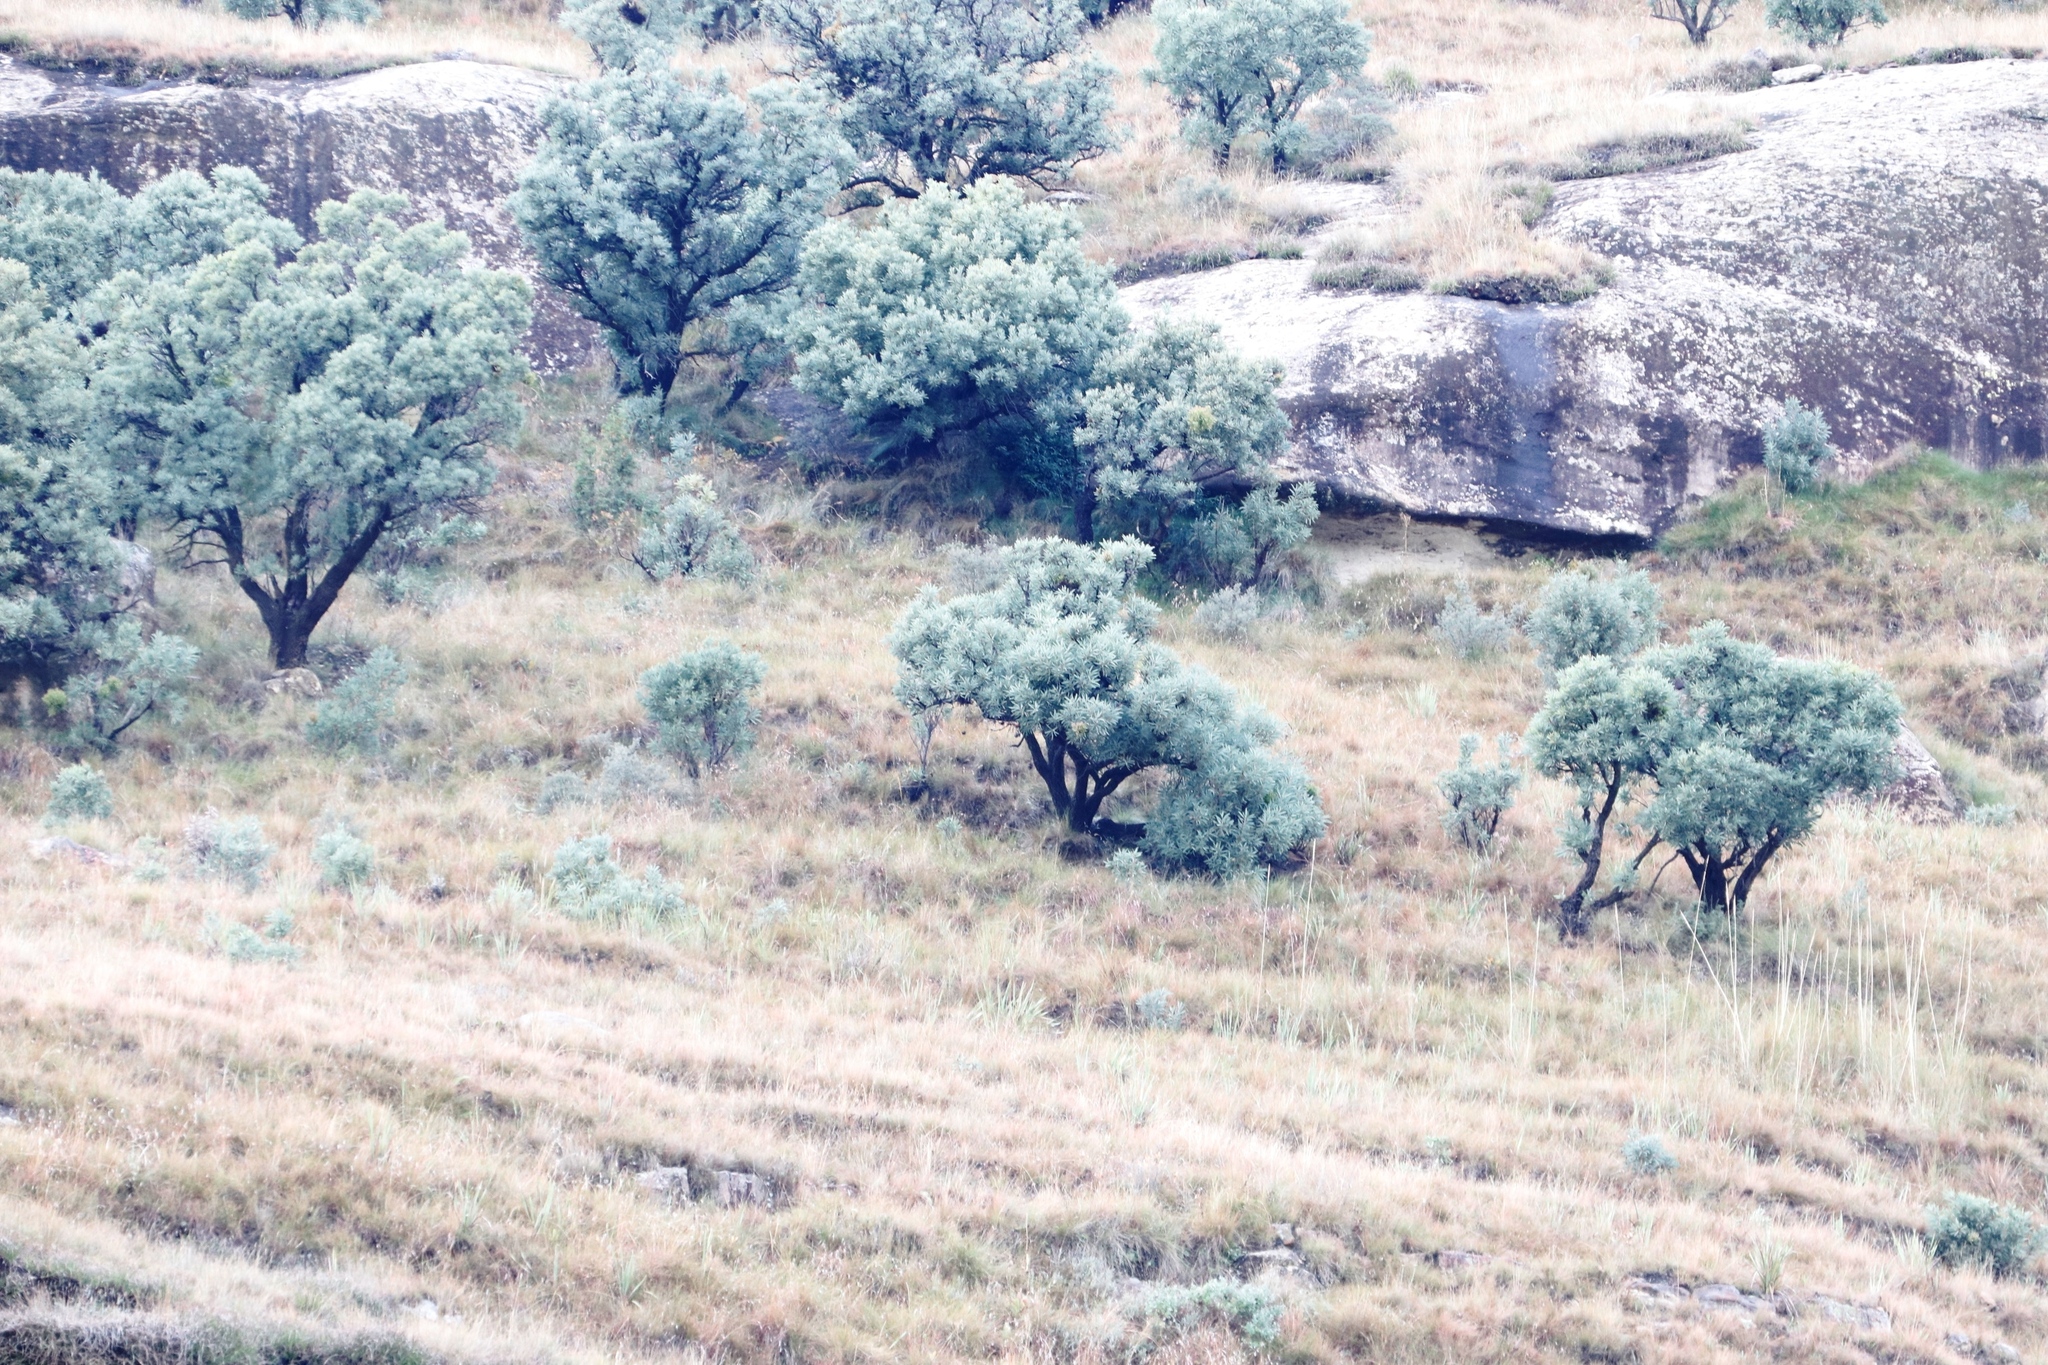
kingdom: Plantae
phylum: Tracheophyta
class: Magnoliopsida
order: Proteales
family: Proteaceae
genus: Protea
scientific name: Protea caffra
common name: Common sugarbush
